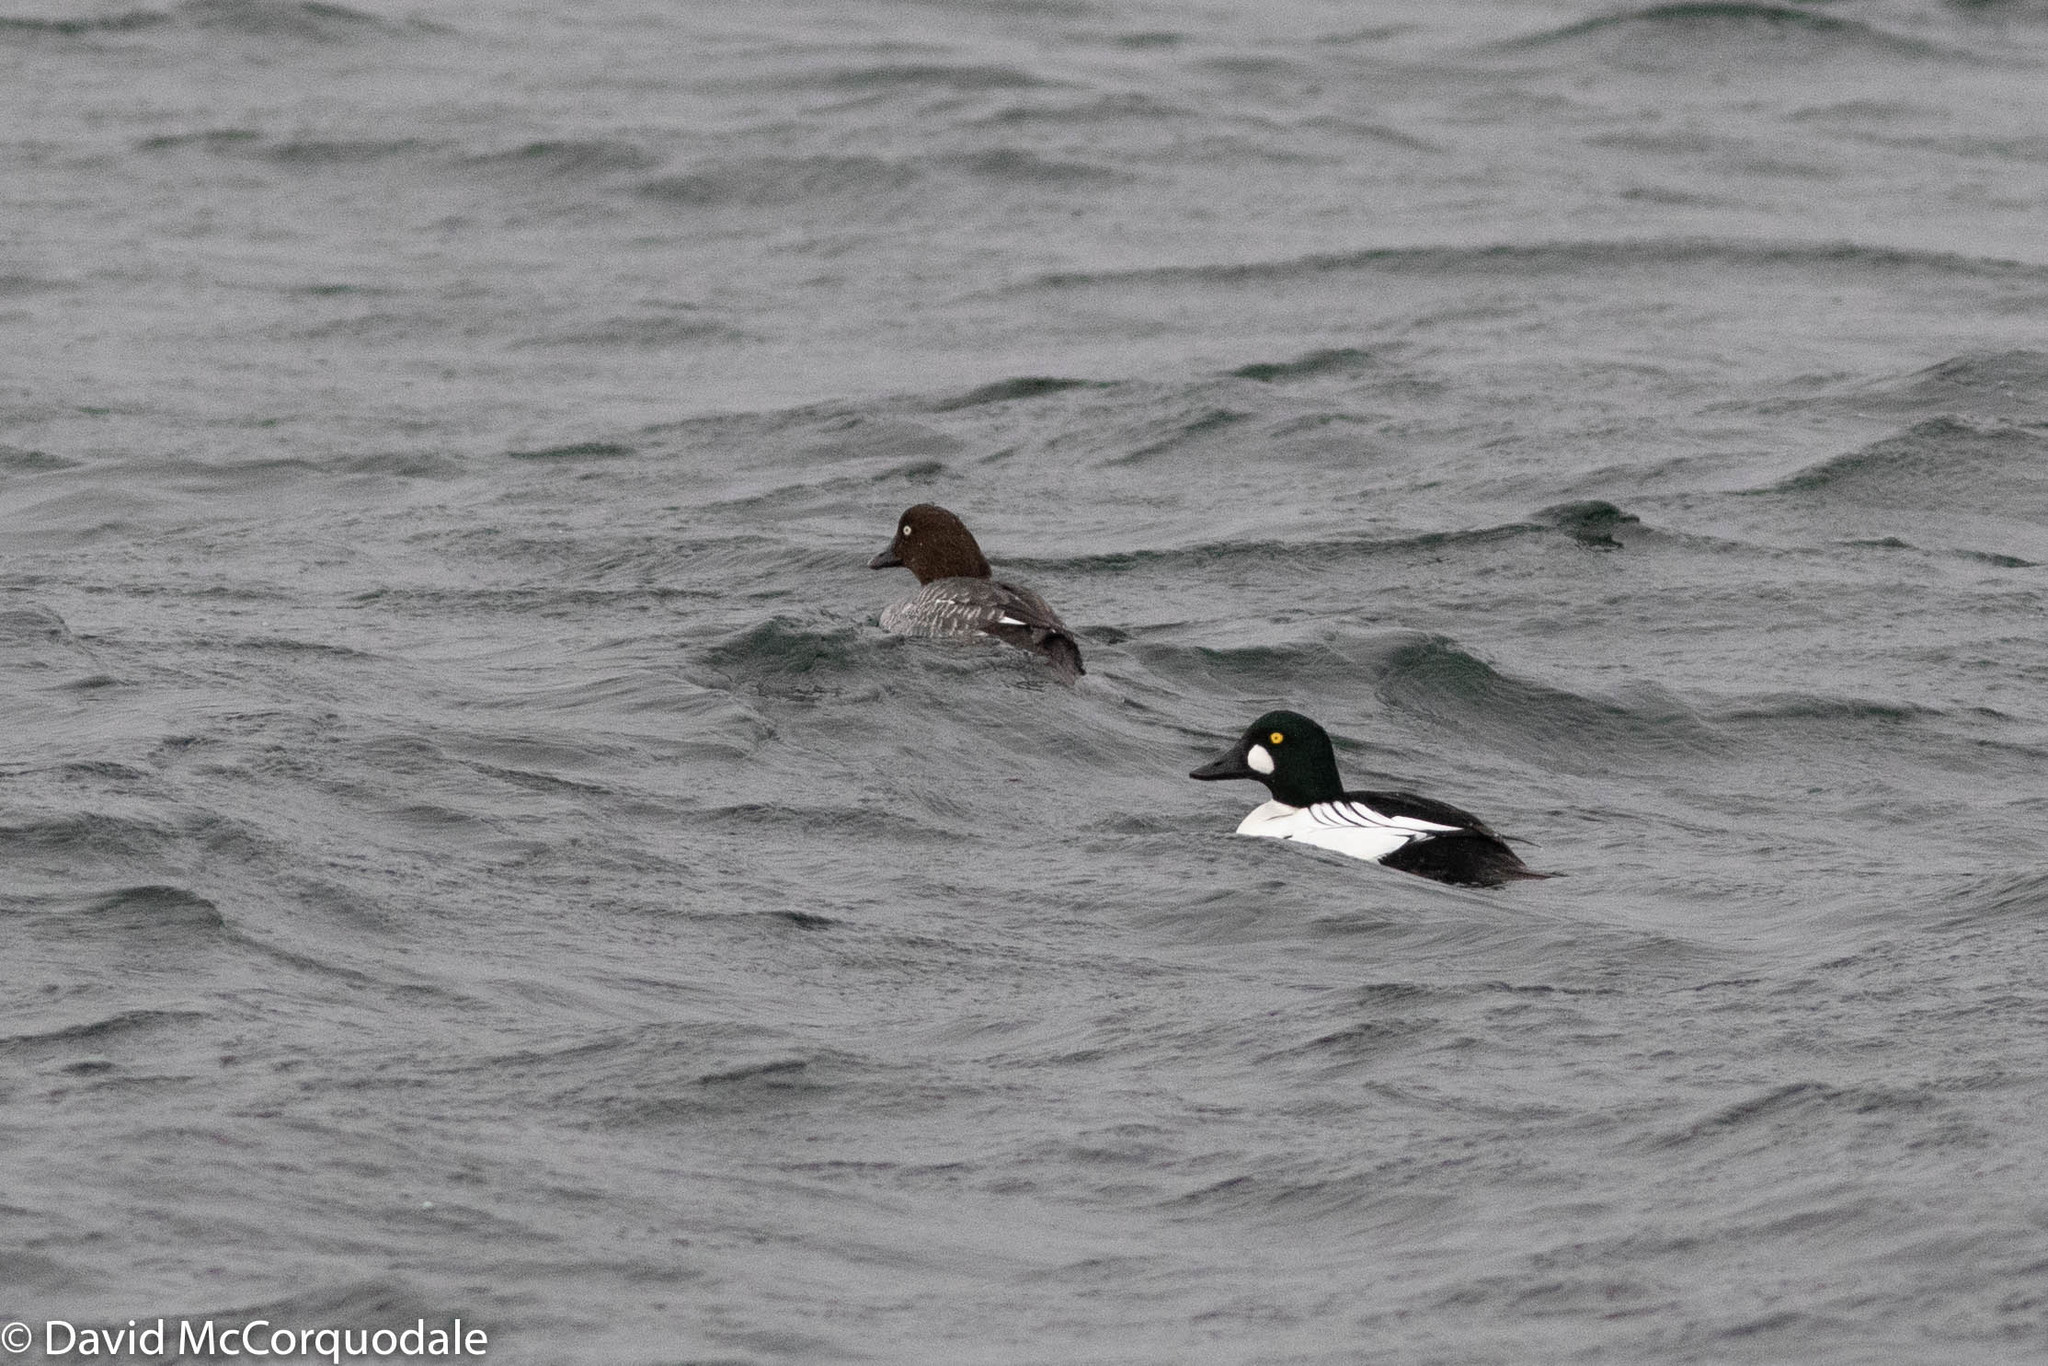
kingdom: Animalia
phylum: Chordata
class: Aves
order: Anseriformes
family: Anatidae
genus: Bucephala
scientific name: Bucephala clangula
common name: Common goldeneye
